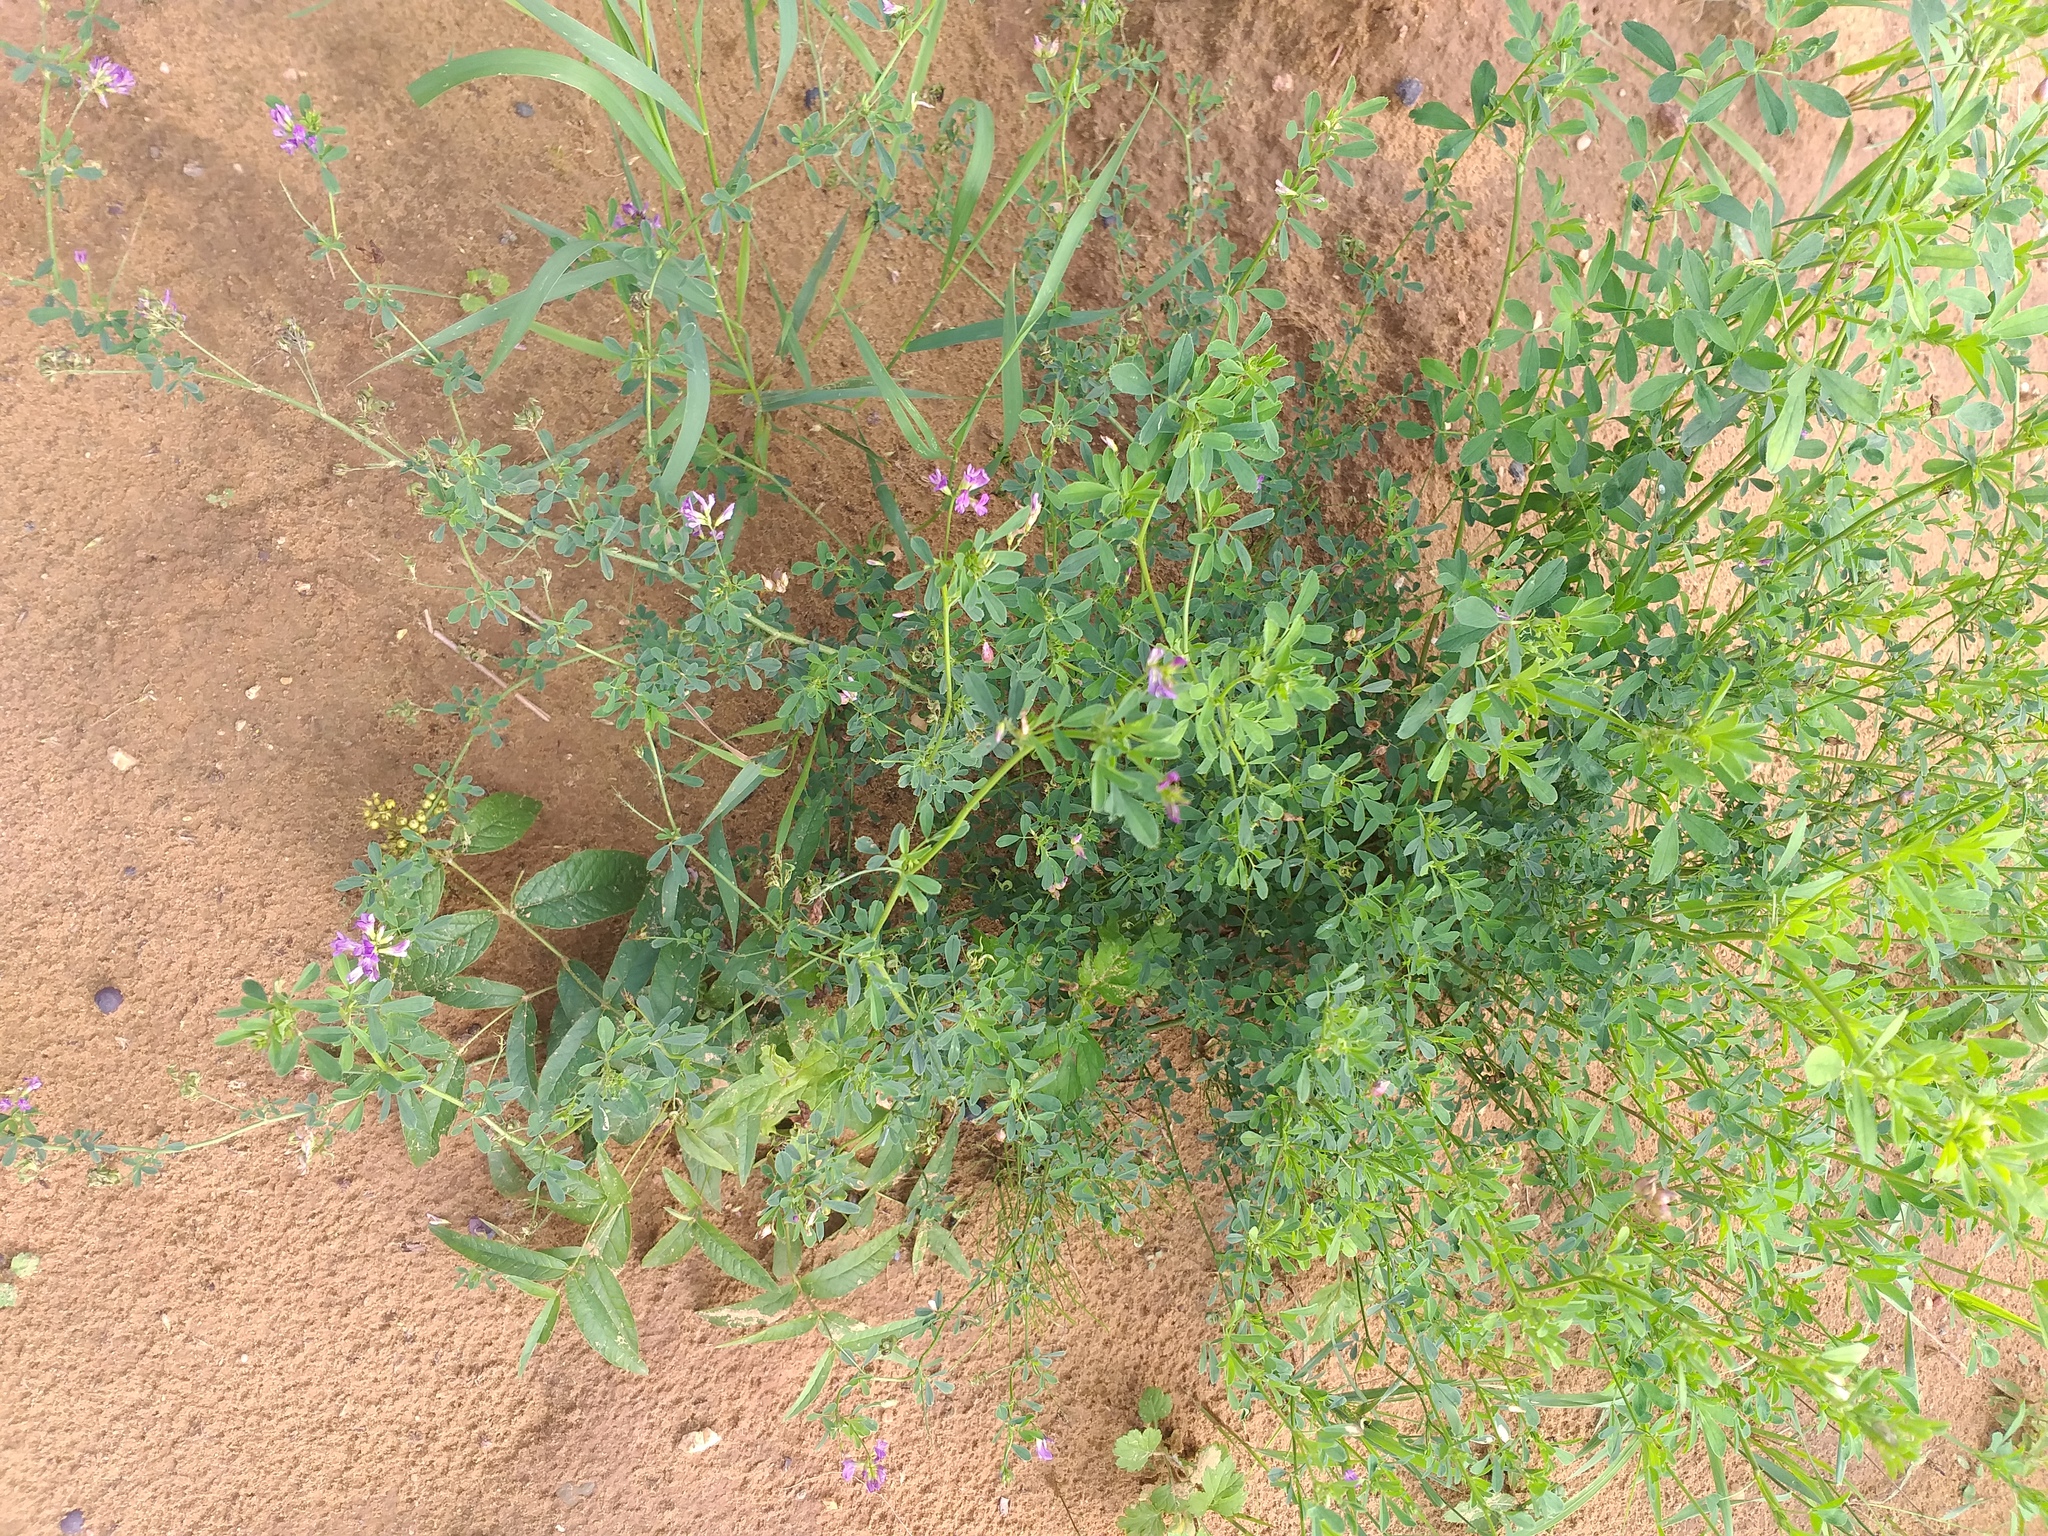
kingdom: Plantae
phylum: Tracheophyta
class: Magnoliopsida
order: Fabales
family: Fabaceae
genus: Medicago
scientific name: Medicago sativa
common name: Alfalfa
